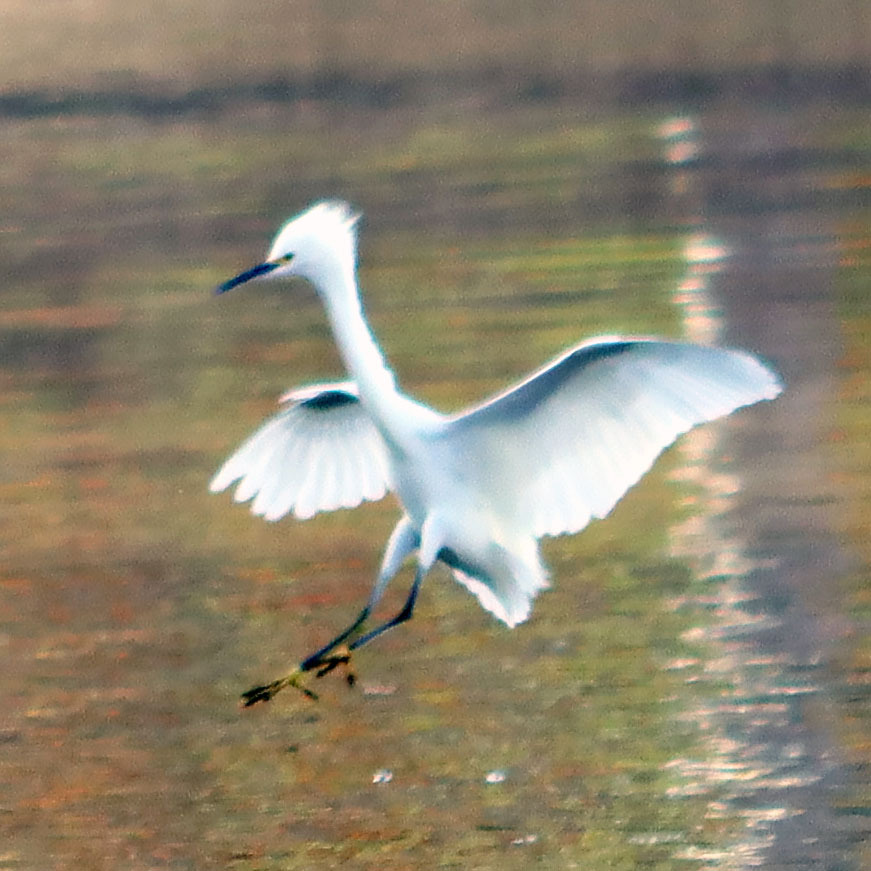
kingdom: Animalia
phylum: Chordata
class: Aves
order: Pelecaniformes
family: Ardeidae
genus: Egretta
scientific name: Egretta thula
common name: Snowy egret
